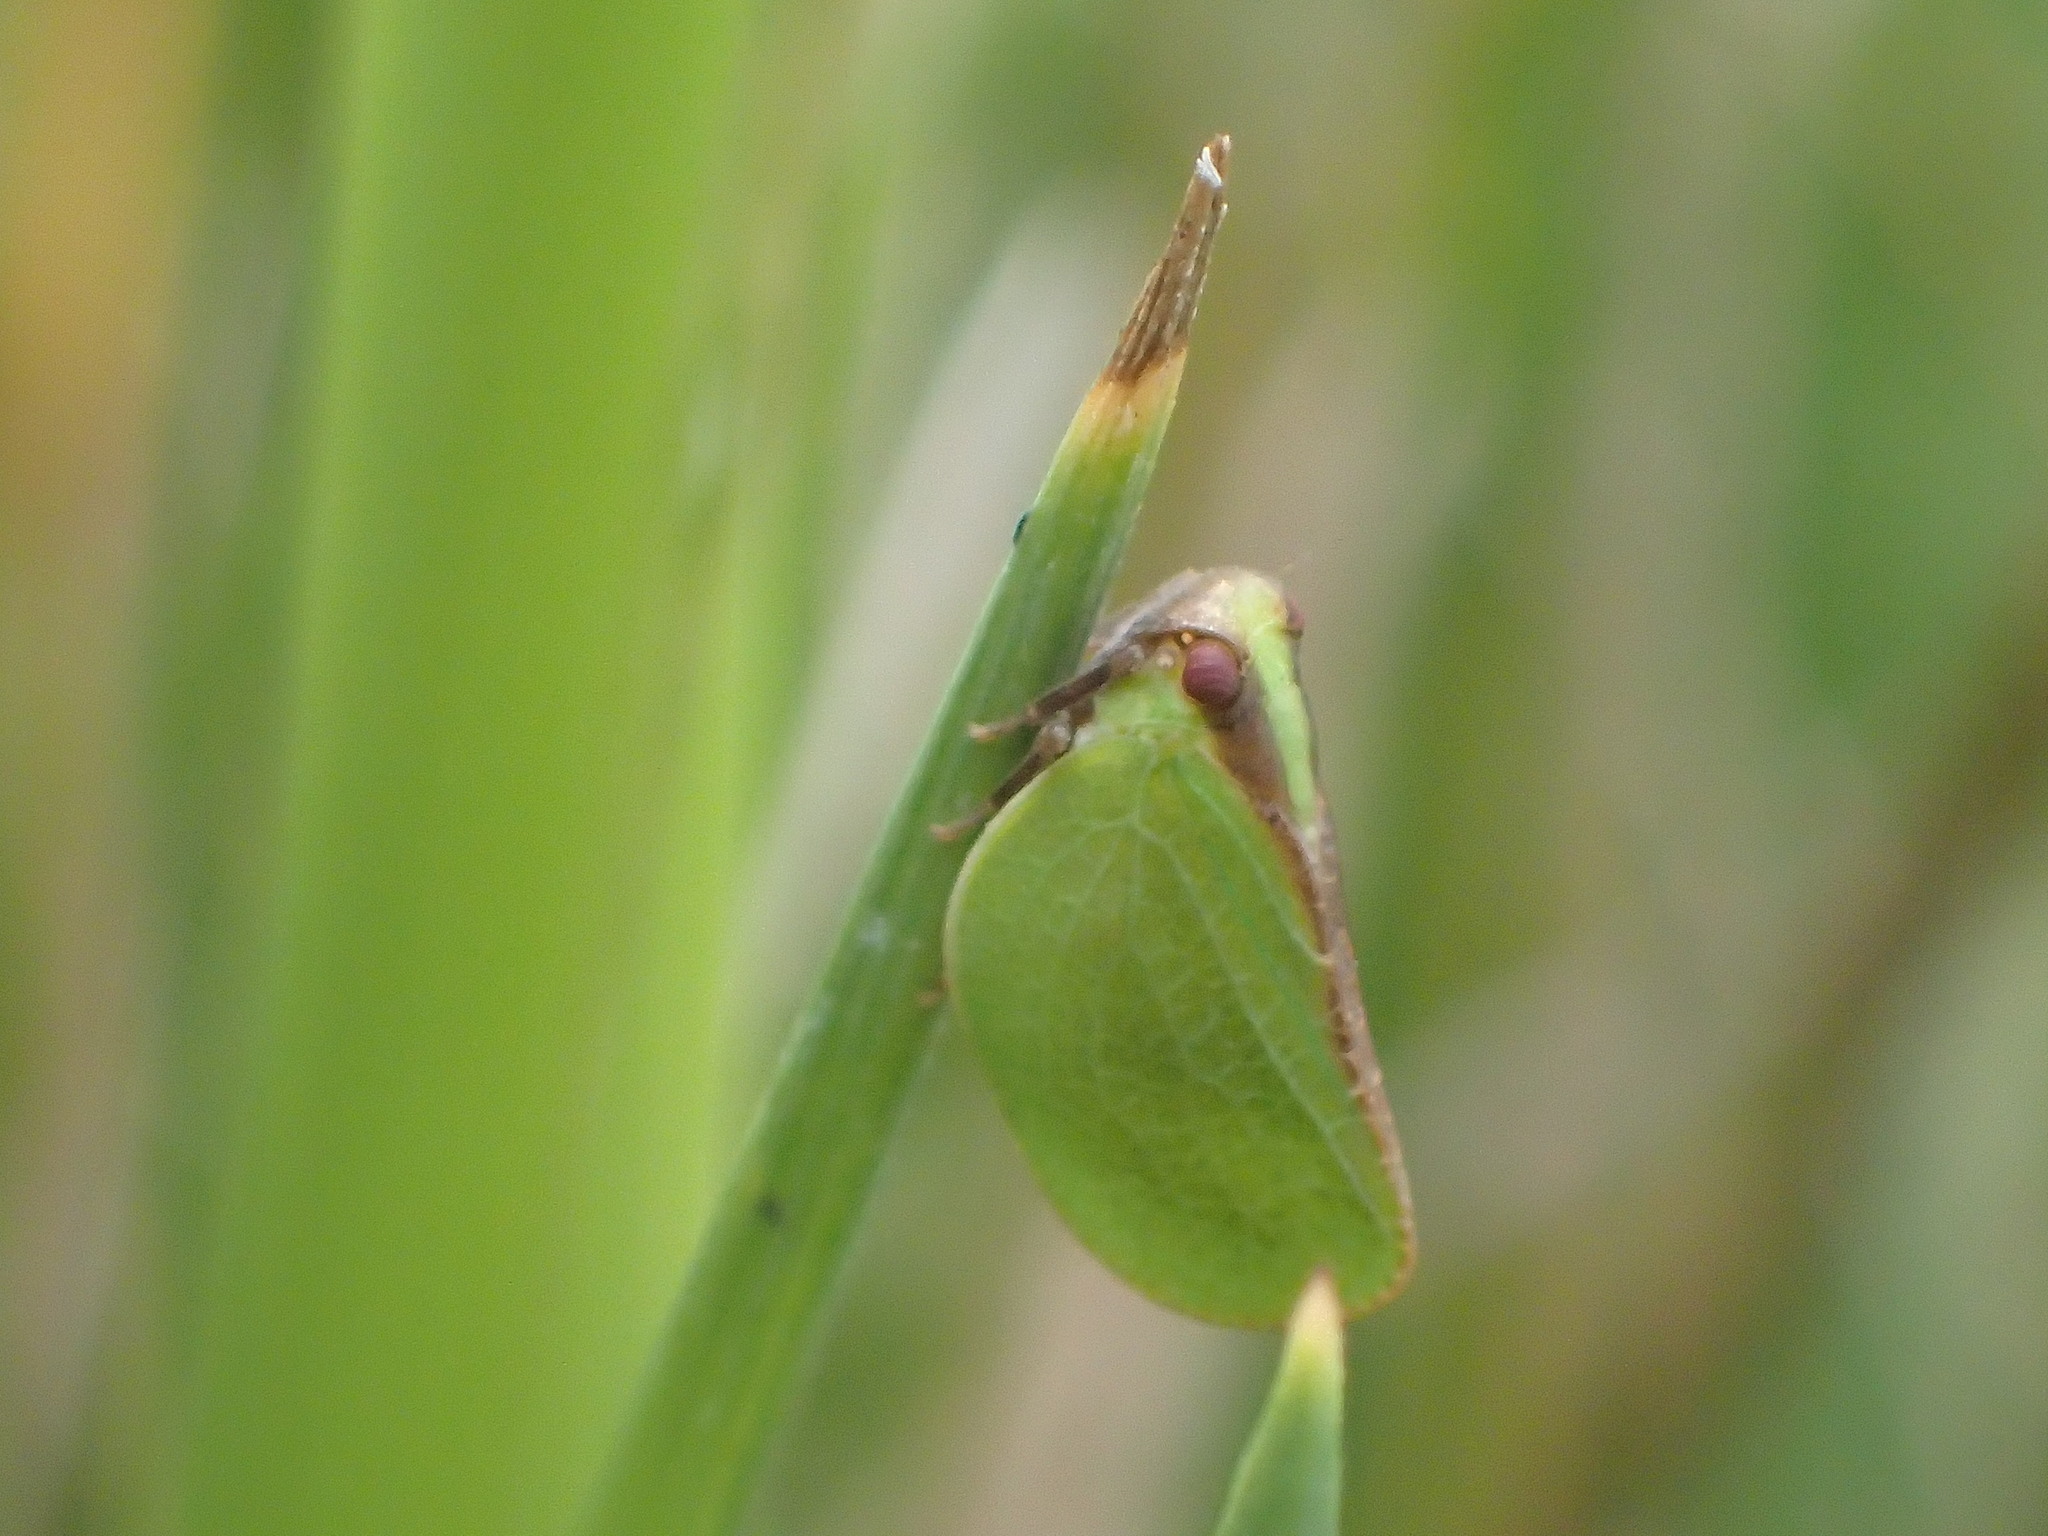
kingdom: Animalia
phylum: Arthropoda
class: Insecta
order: Hemiptera
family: Acanaloniidae
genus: Acanalonia
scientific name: Acanalonia bivittata
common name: Two-striped planthopper
